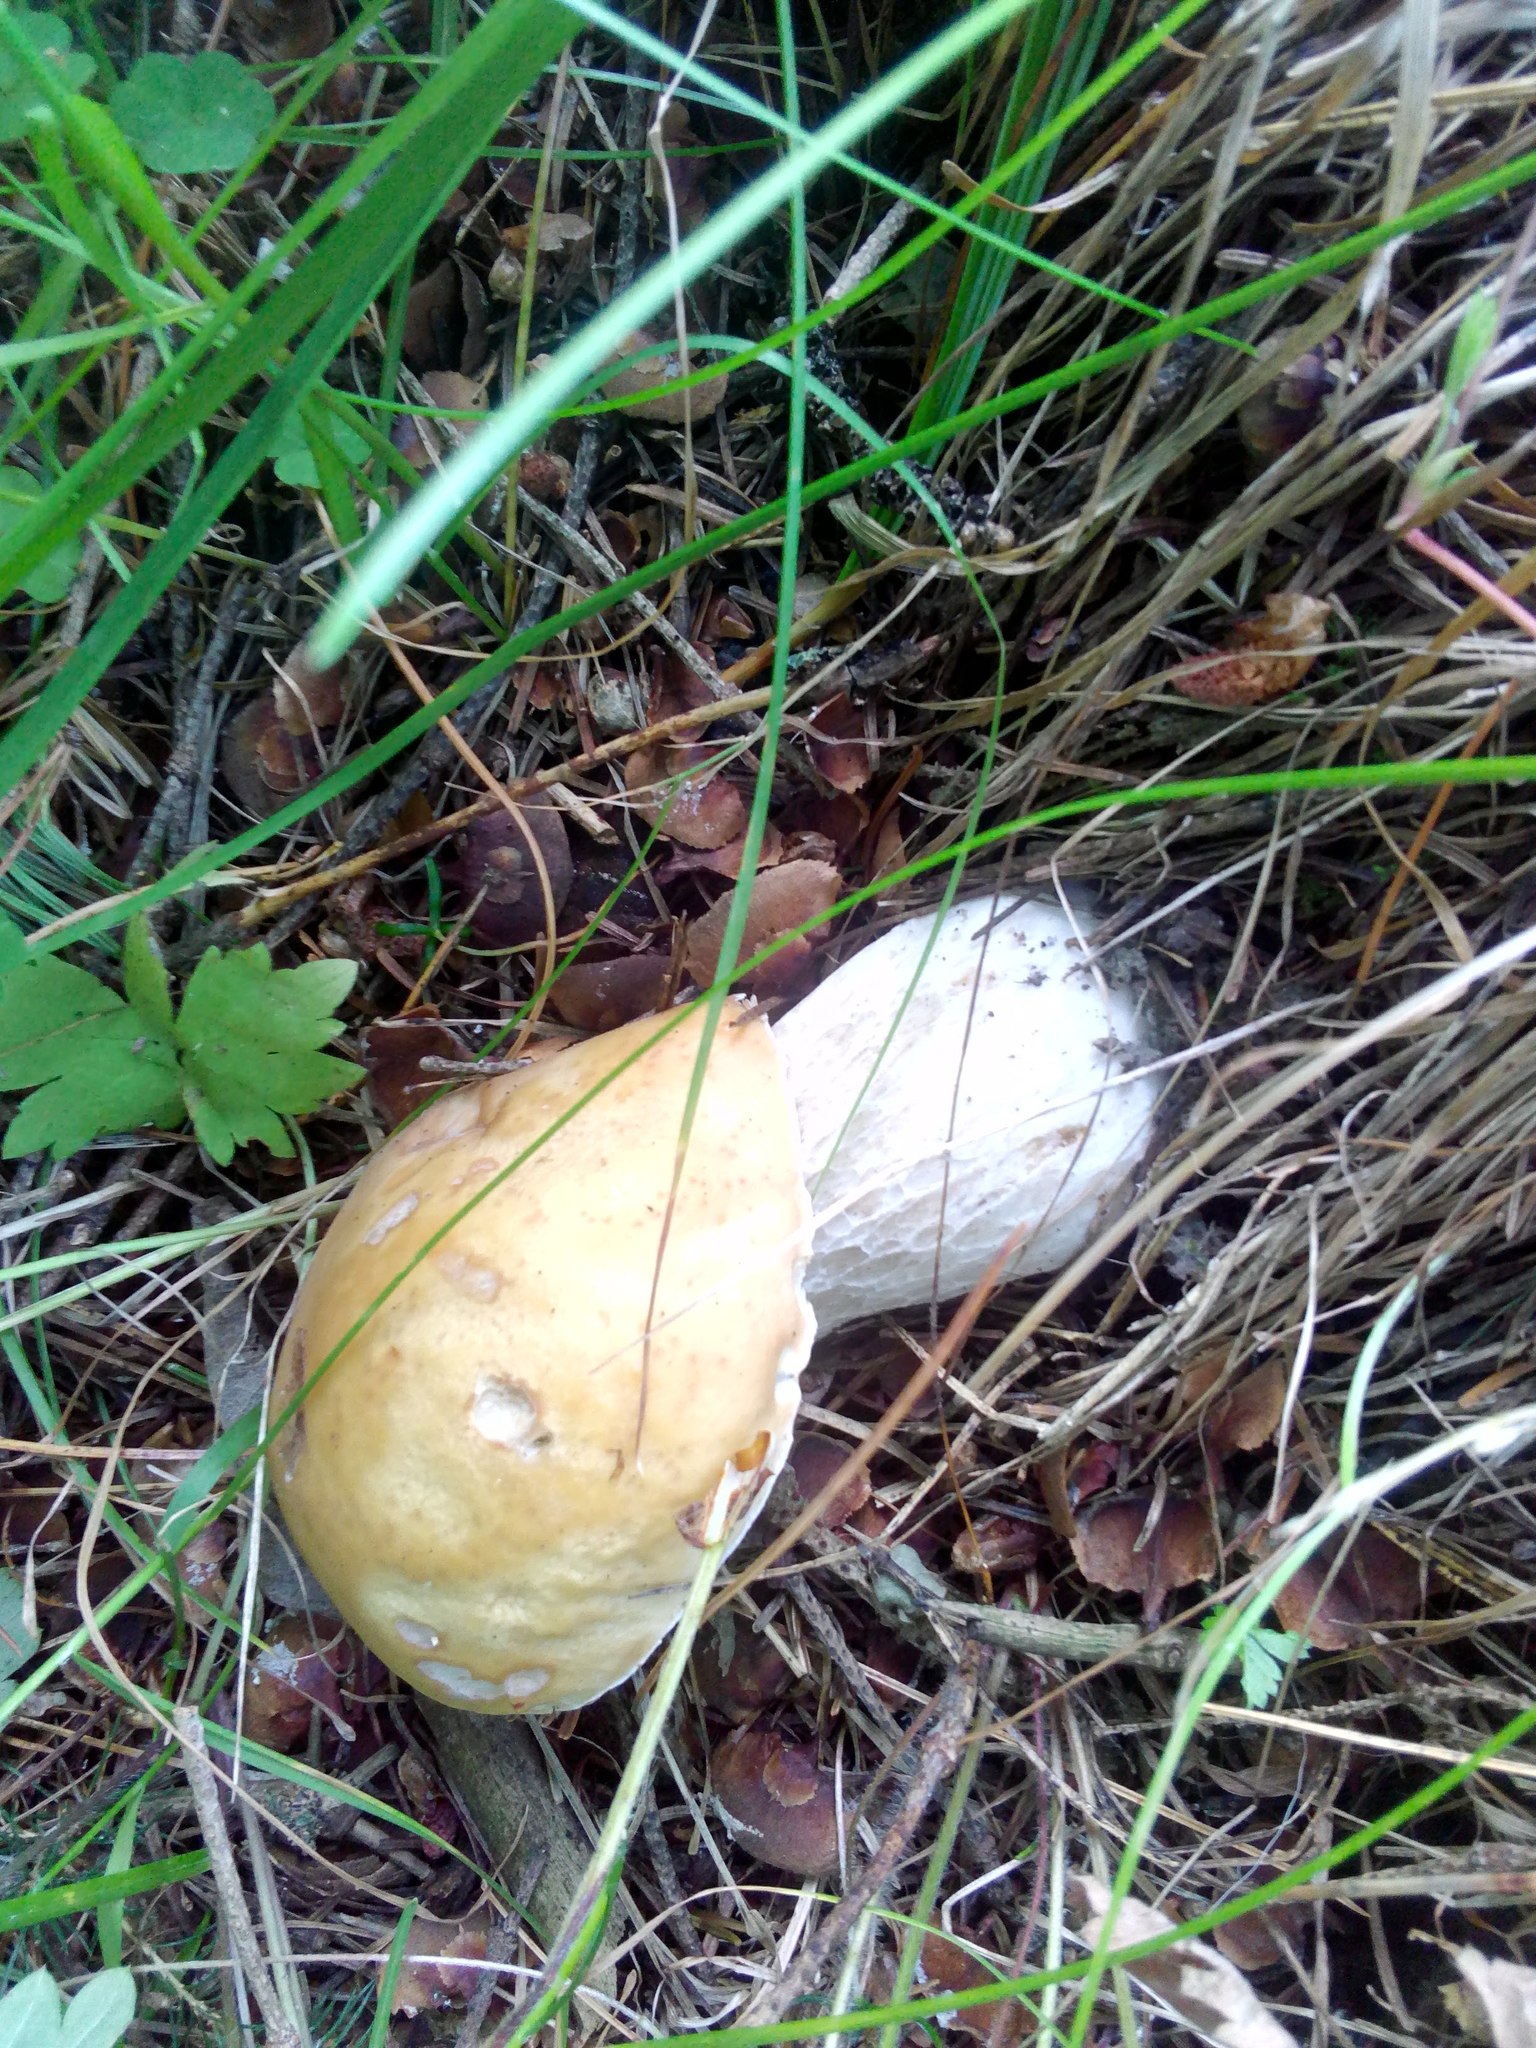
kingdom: Fungi
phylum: Basidiomycota
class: Agaricomycetes
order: Boletales
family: Boletaceae
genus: Boletus
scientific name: Boletus edulis
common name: Cep
